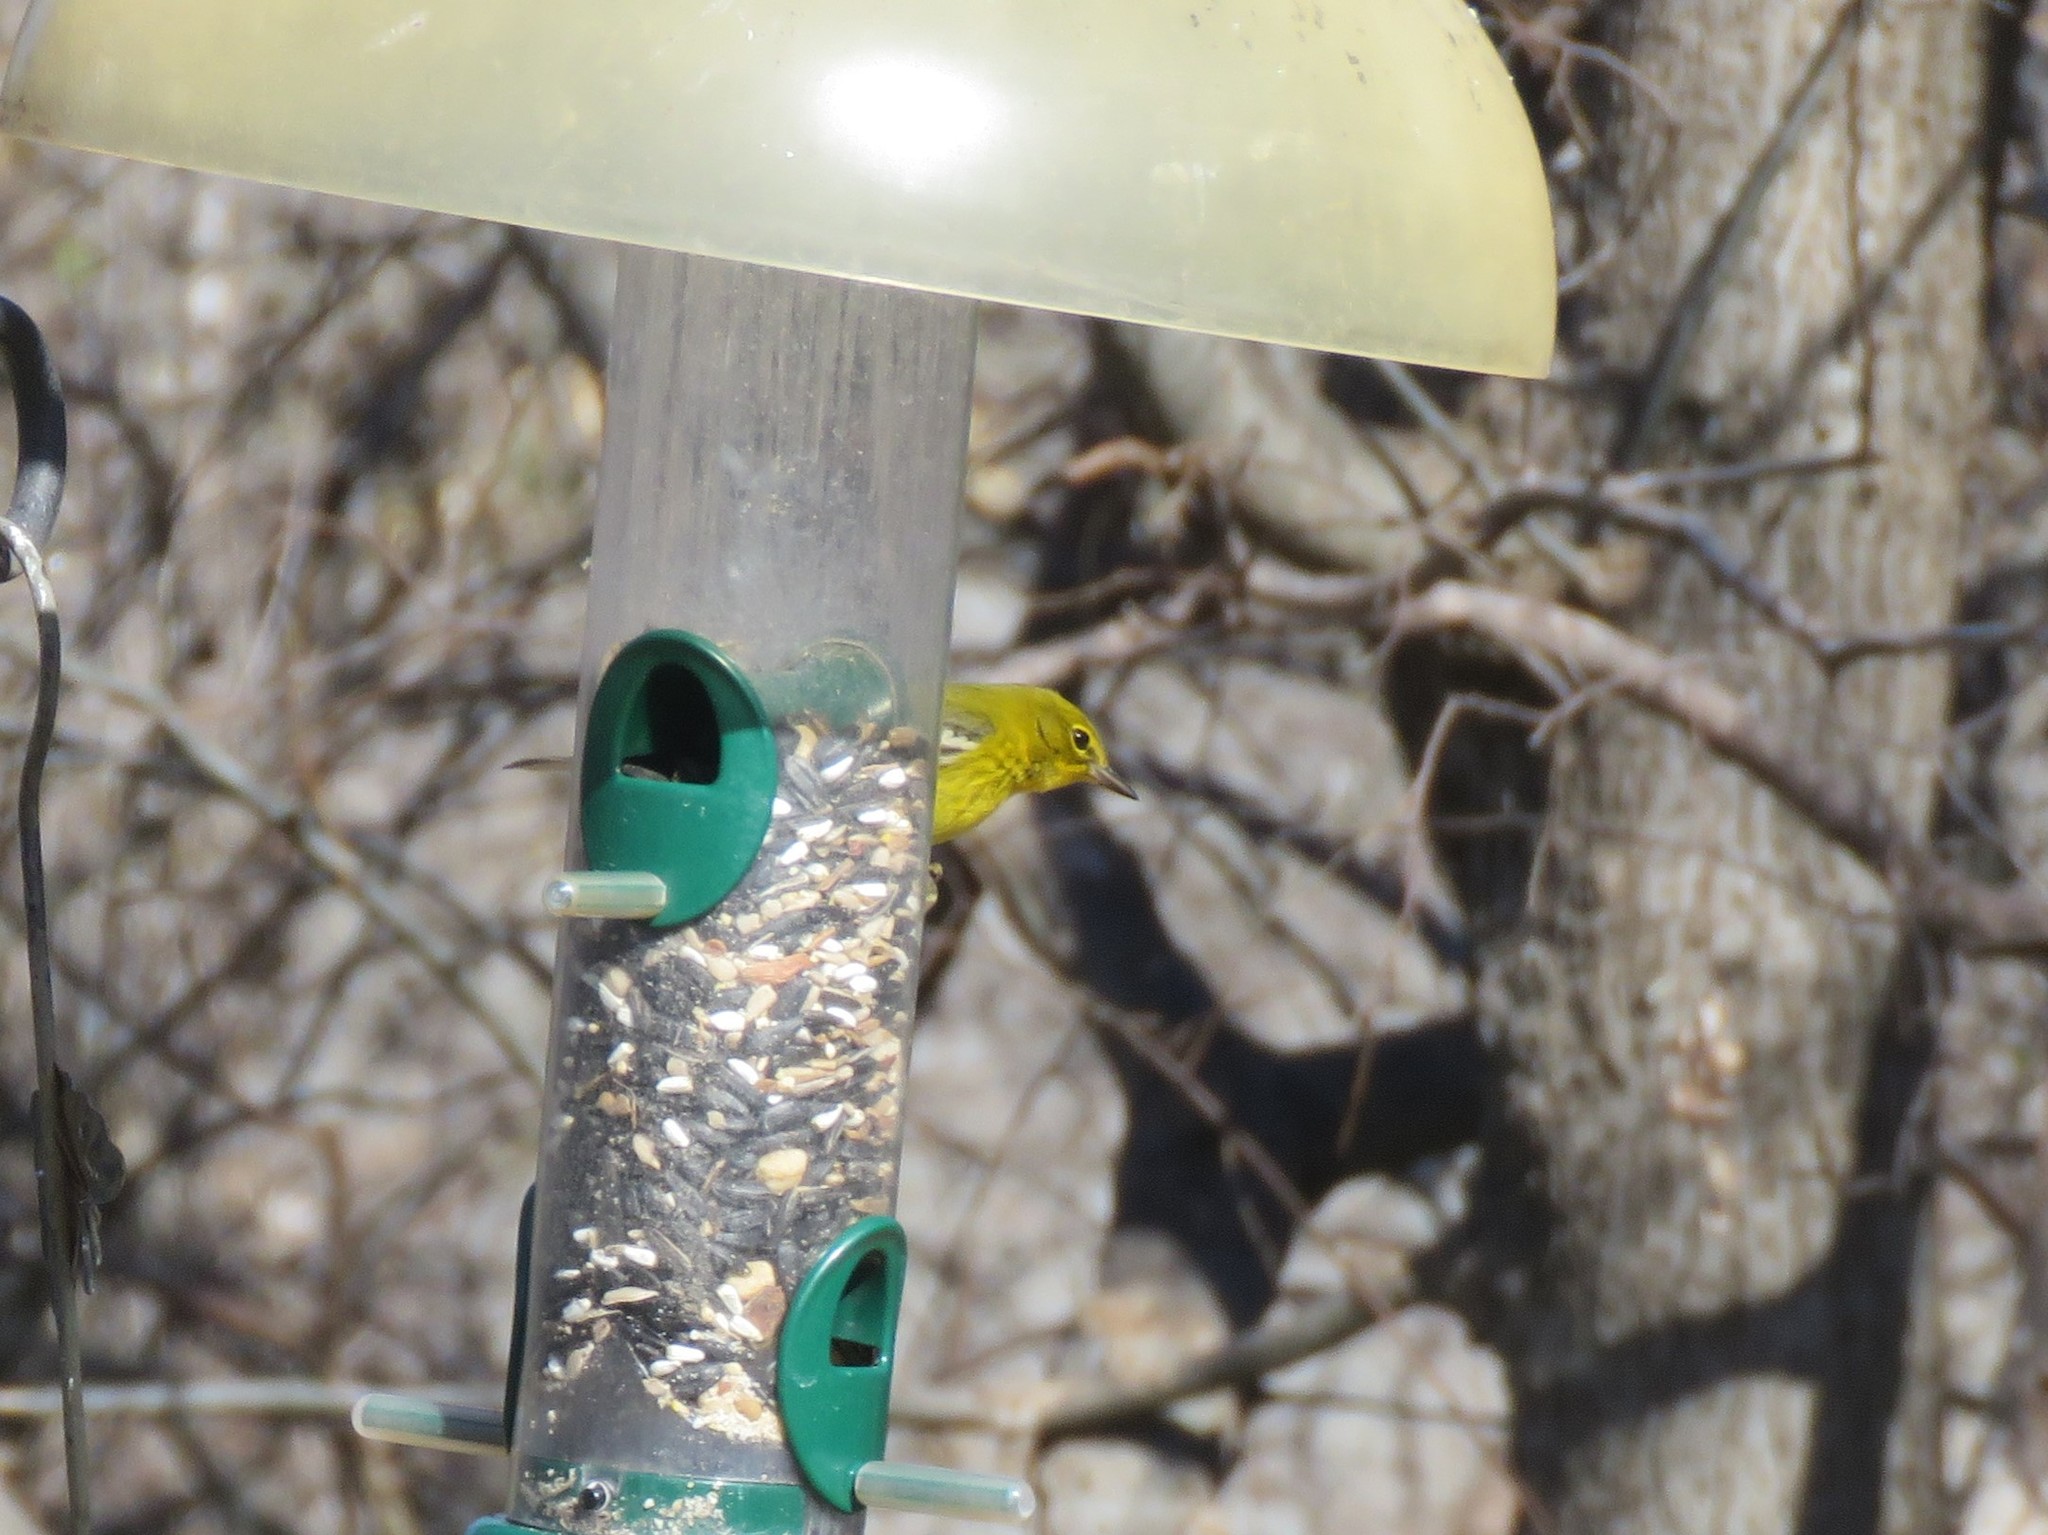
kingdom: Animalia
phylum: Chordata
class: Aves
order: Passeriformes
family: Parulidae
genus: Setophaga
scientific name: Setophaga pinus
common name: Pine warbler
